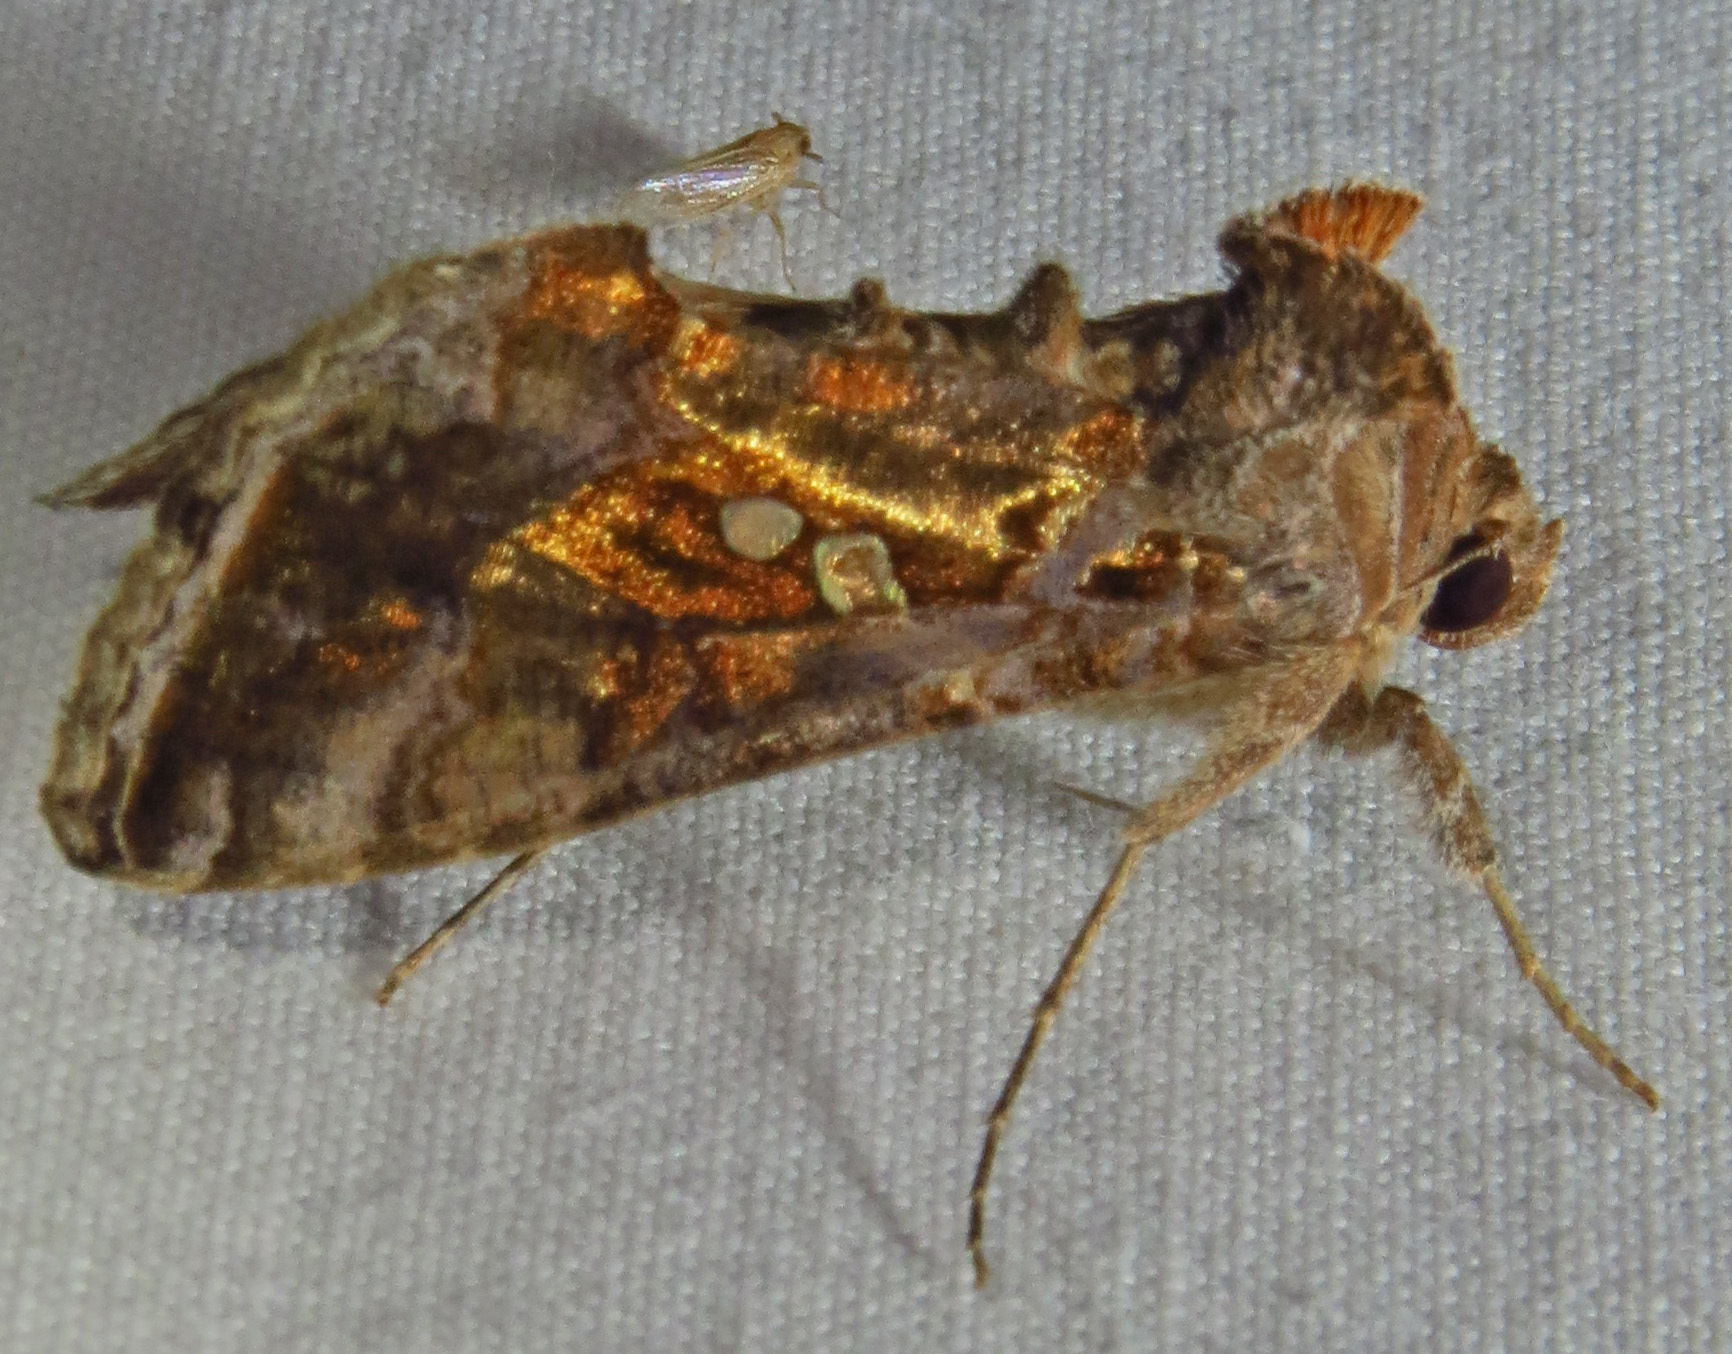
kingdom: Animalia
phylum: Arthropoda
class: Insecta
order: Lepidoptera
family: Noctuidae
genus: Chrysodeixis
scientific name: Chrysodeixis includens
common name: Cutworm moth
